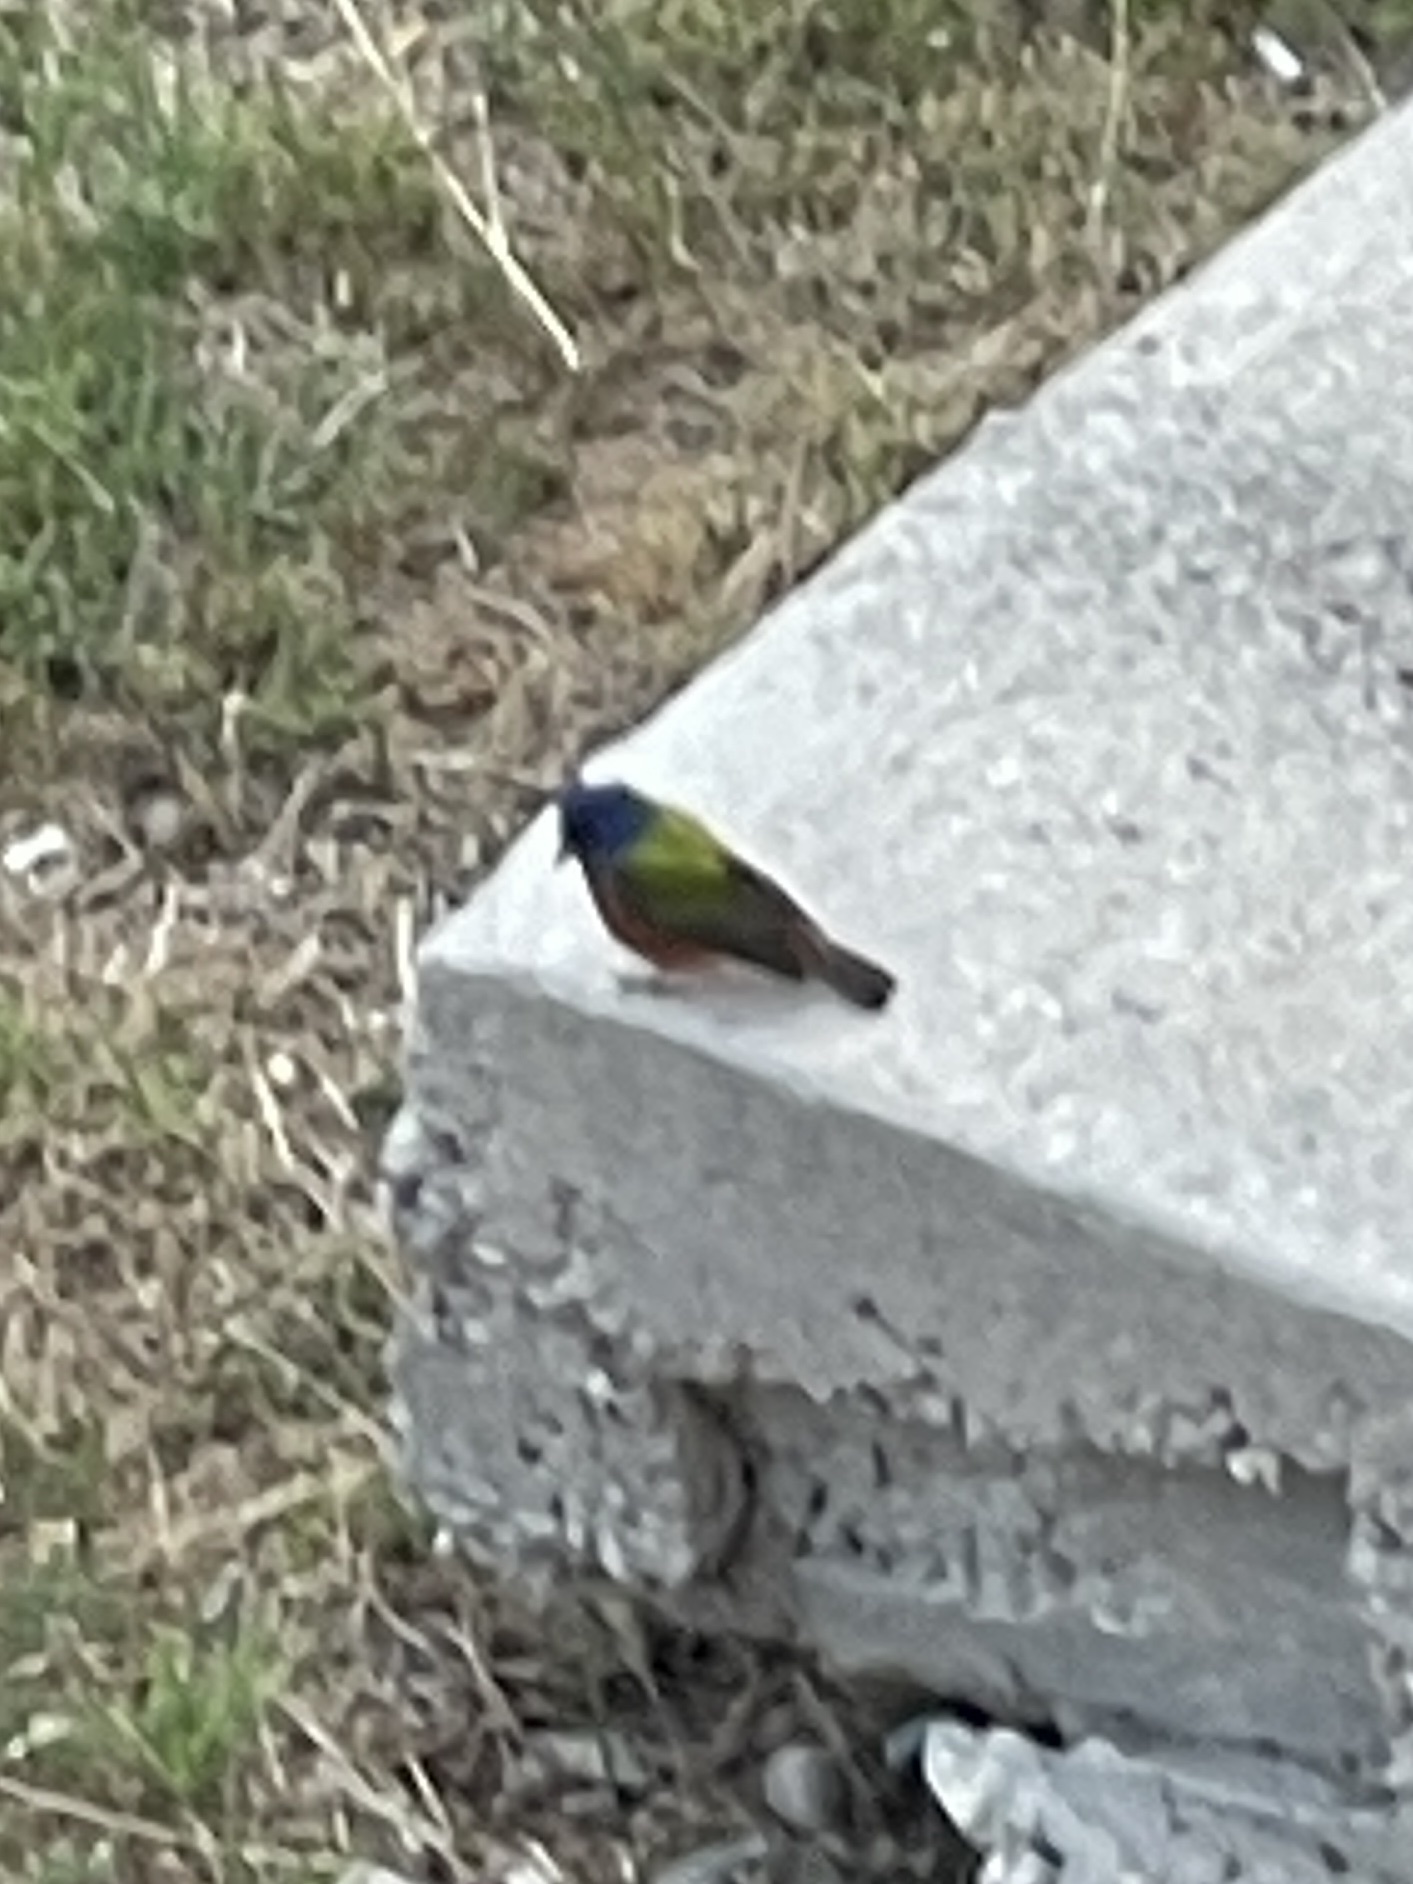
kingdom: Animalia
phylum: Chordata
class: Aves
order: Passeriformes
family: Cardinalidae
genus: Passerina
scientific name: Passerina ciris
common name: Painted bunting
